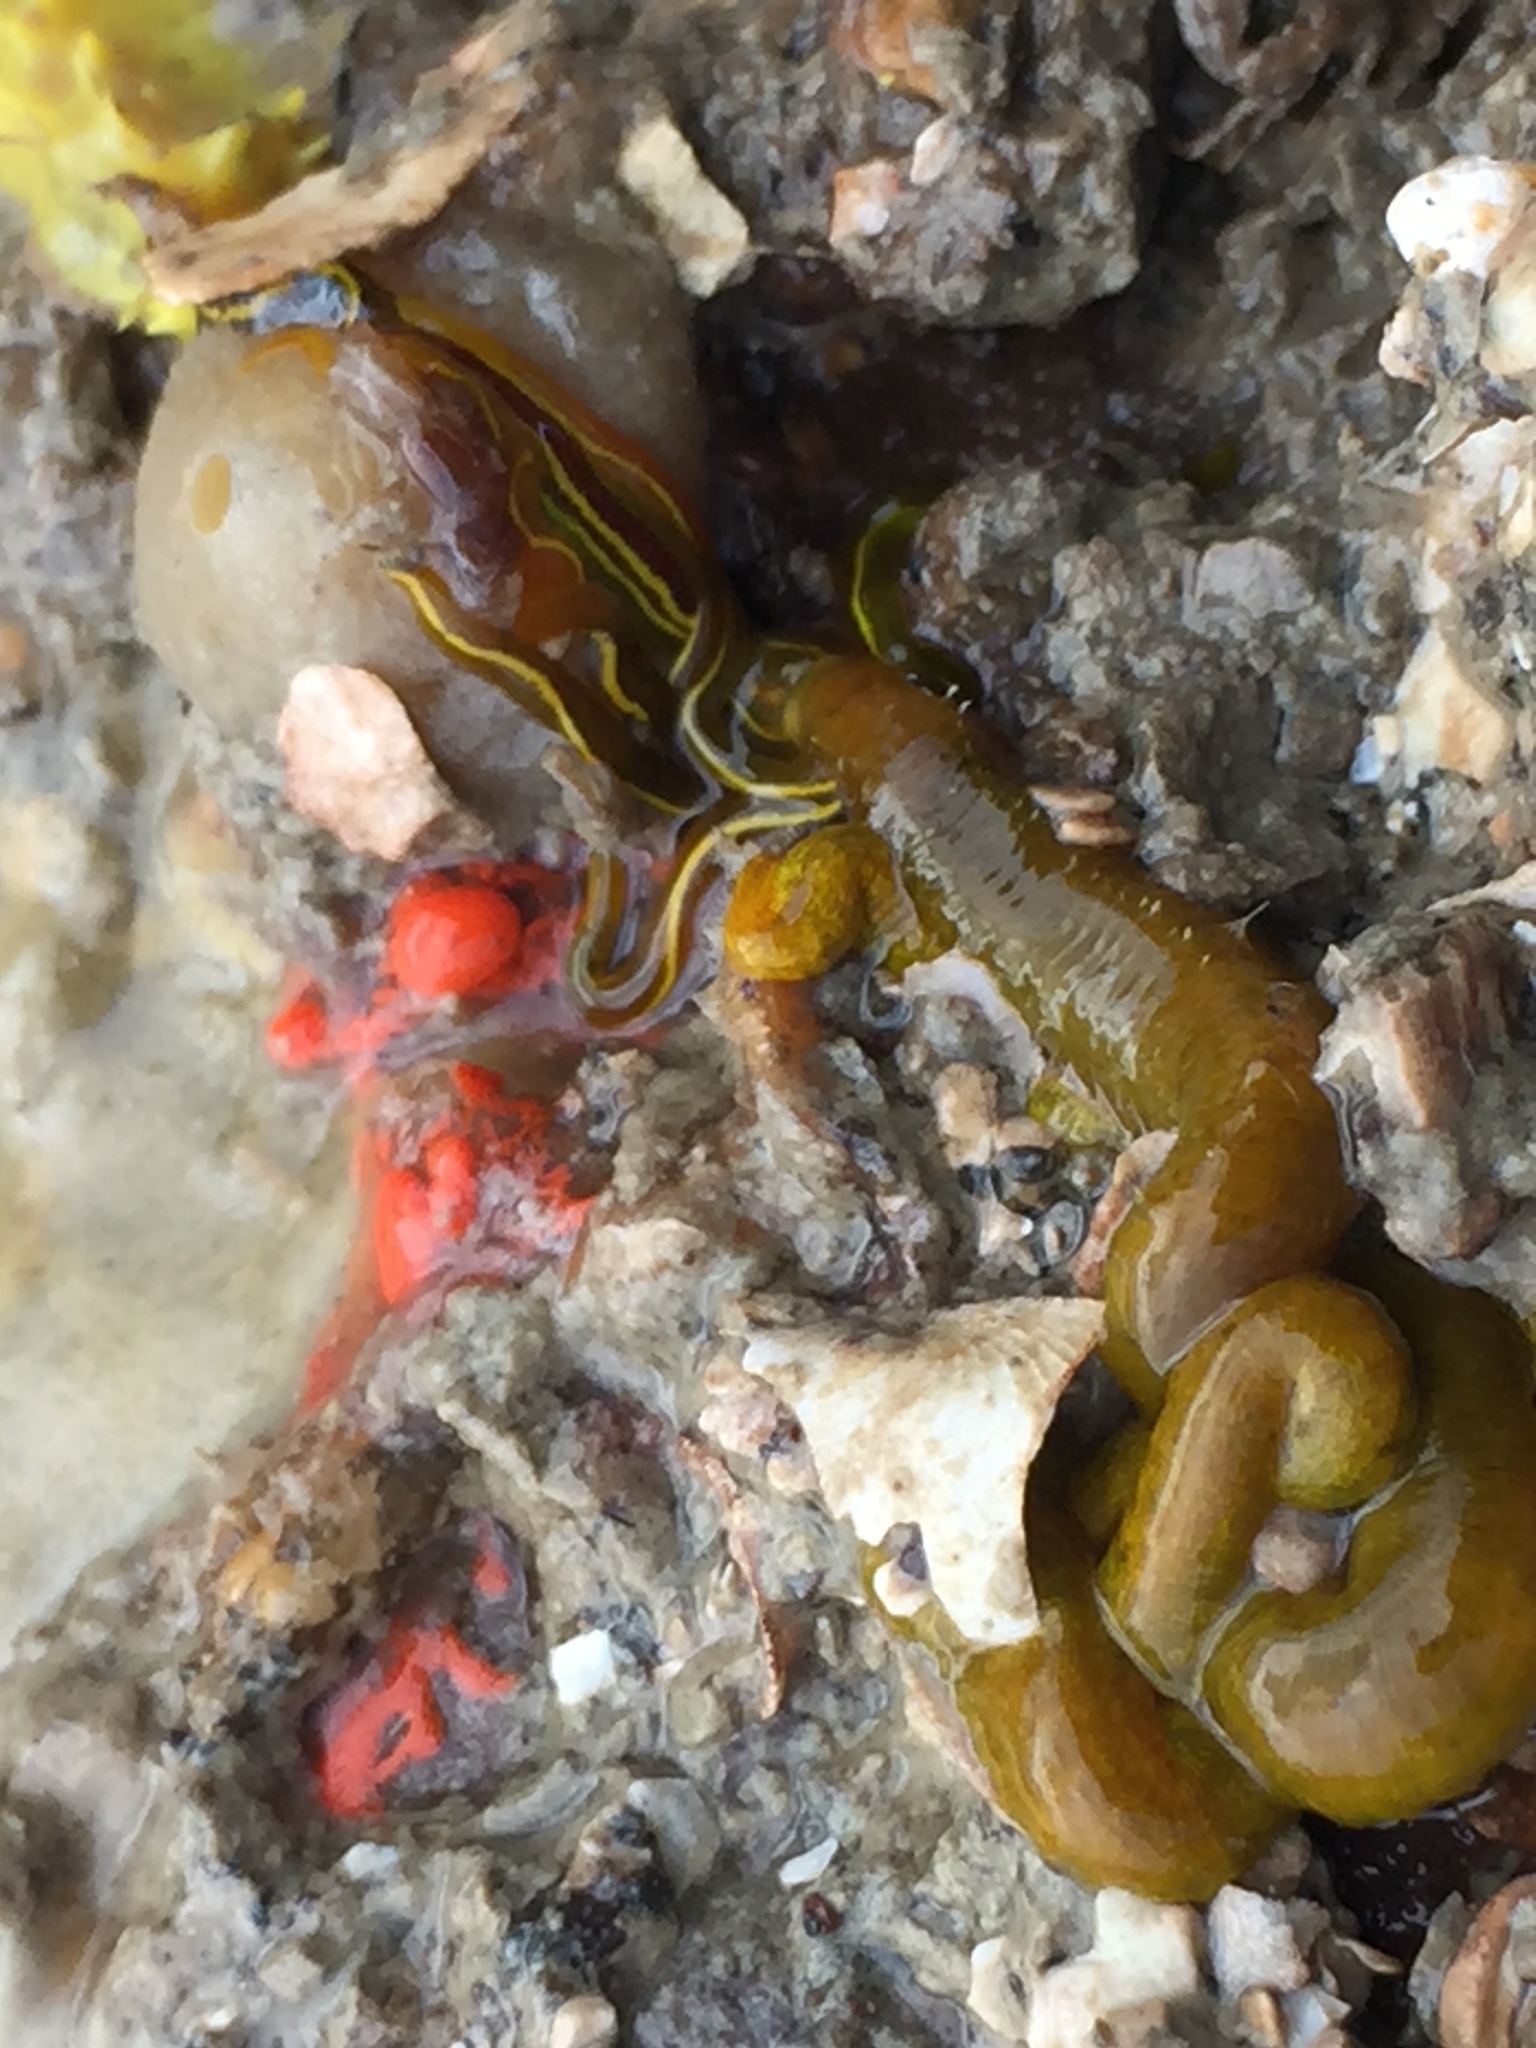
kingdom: Animalia
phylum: Annelida
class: Polychaeta
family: Acrocirridae
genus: Acrocirrus
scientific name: Acrocirrus trisectus
